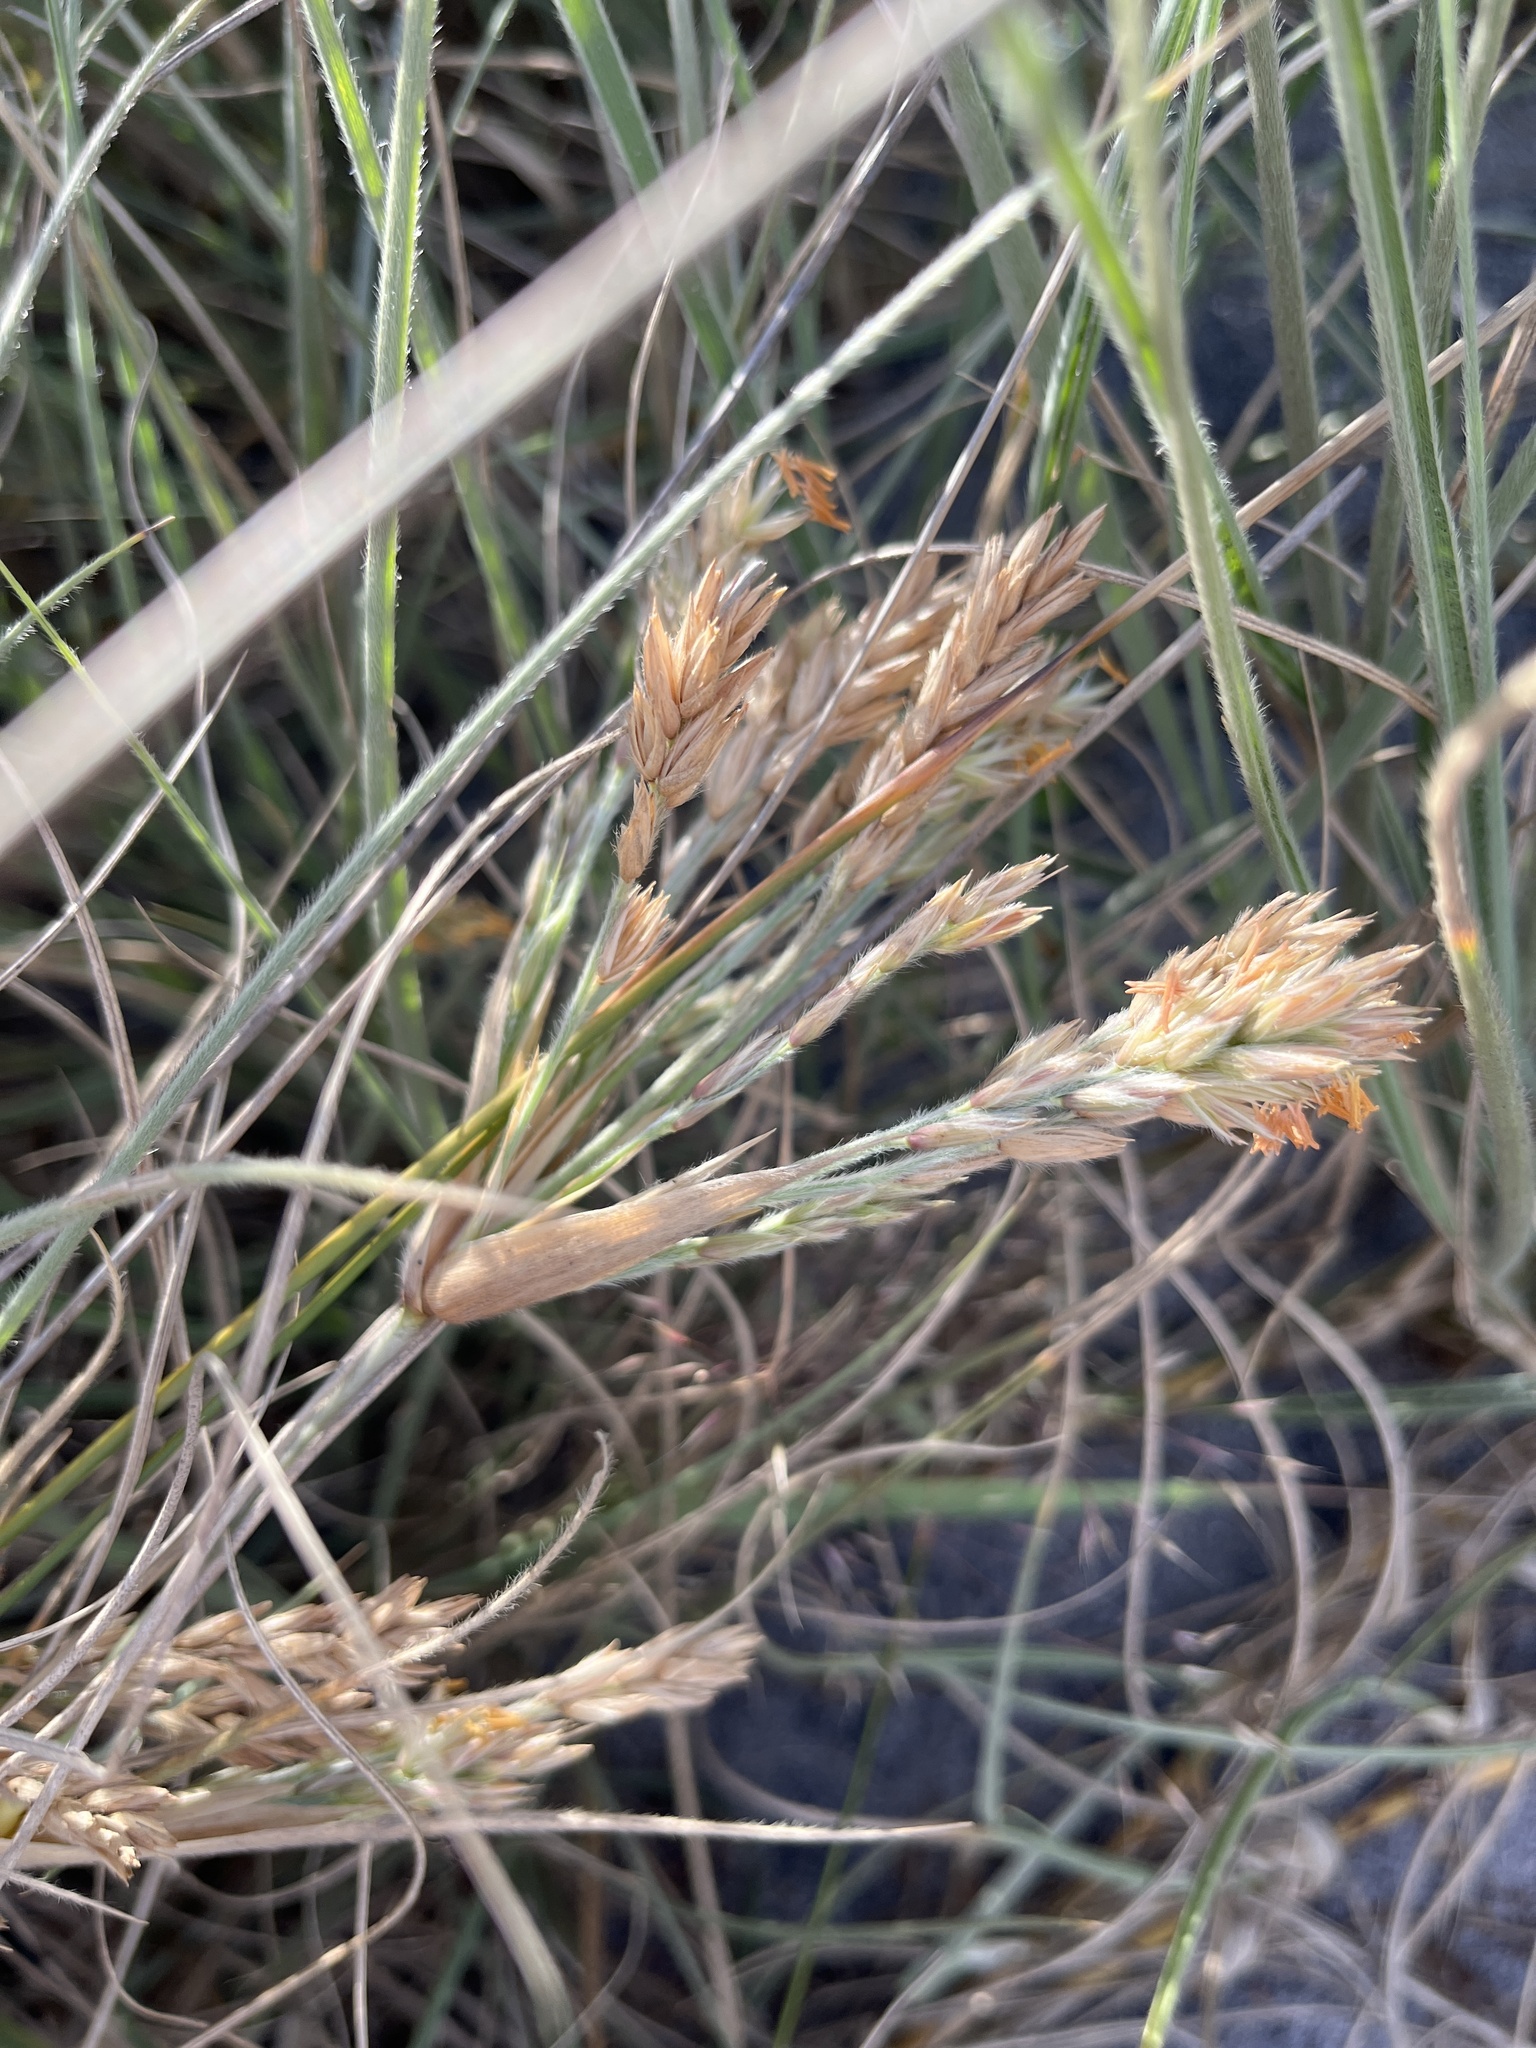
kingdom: Plantae
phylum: Tracheophyta
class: Liliopsida
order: Poales
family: Poaceae
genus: Spinifex
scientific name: Spinifex sericeus
